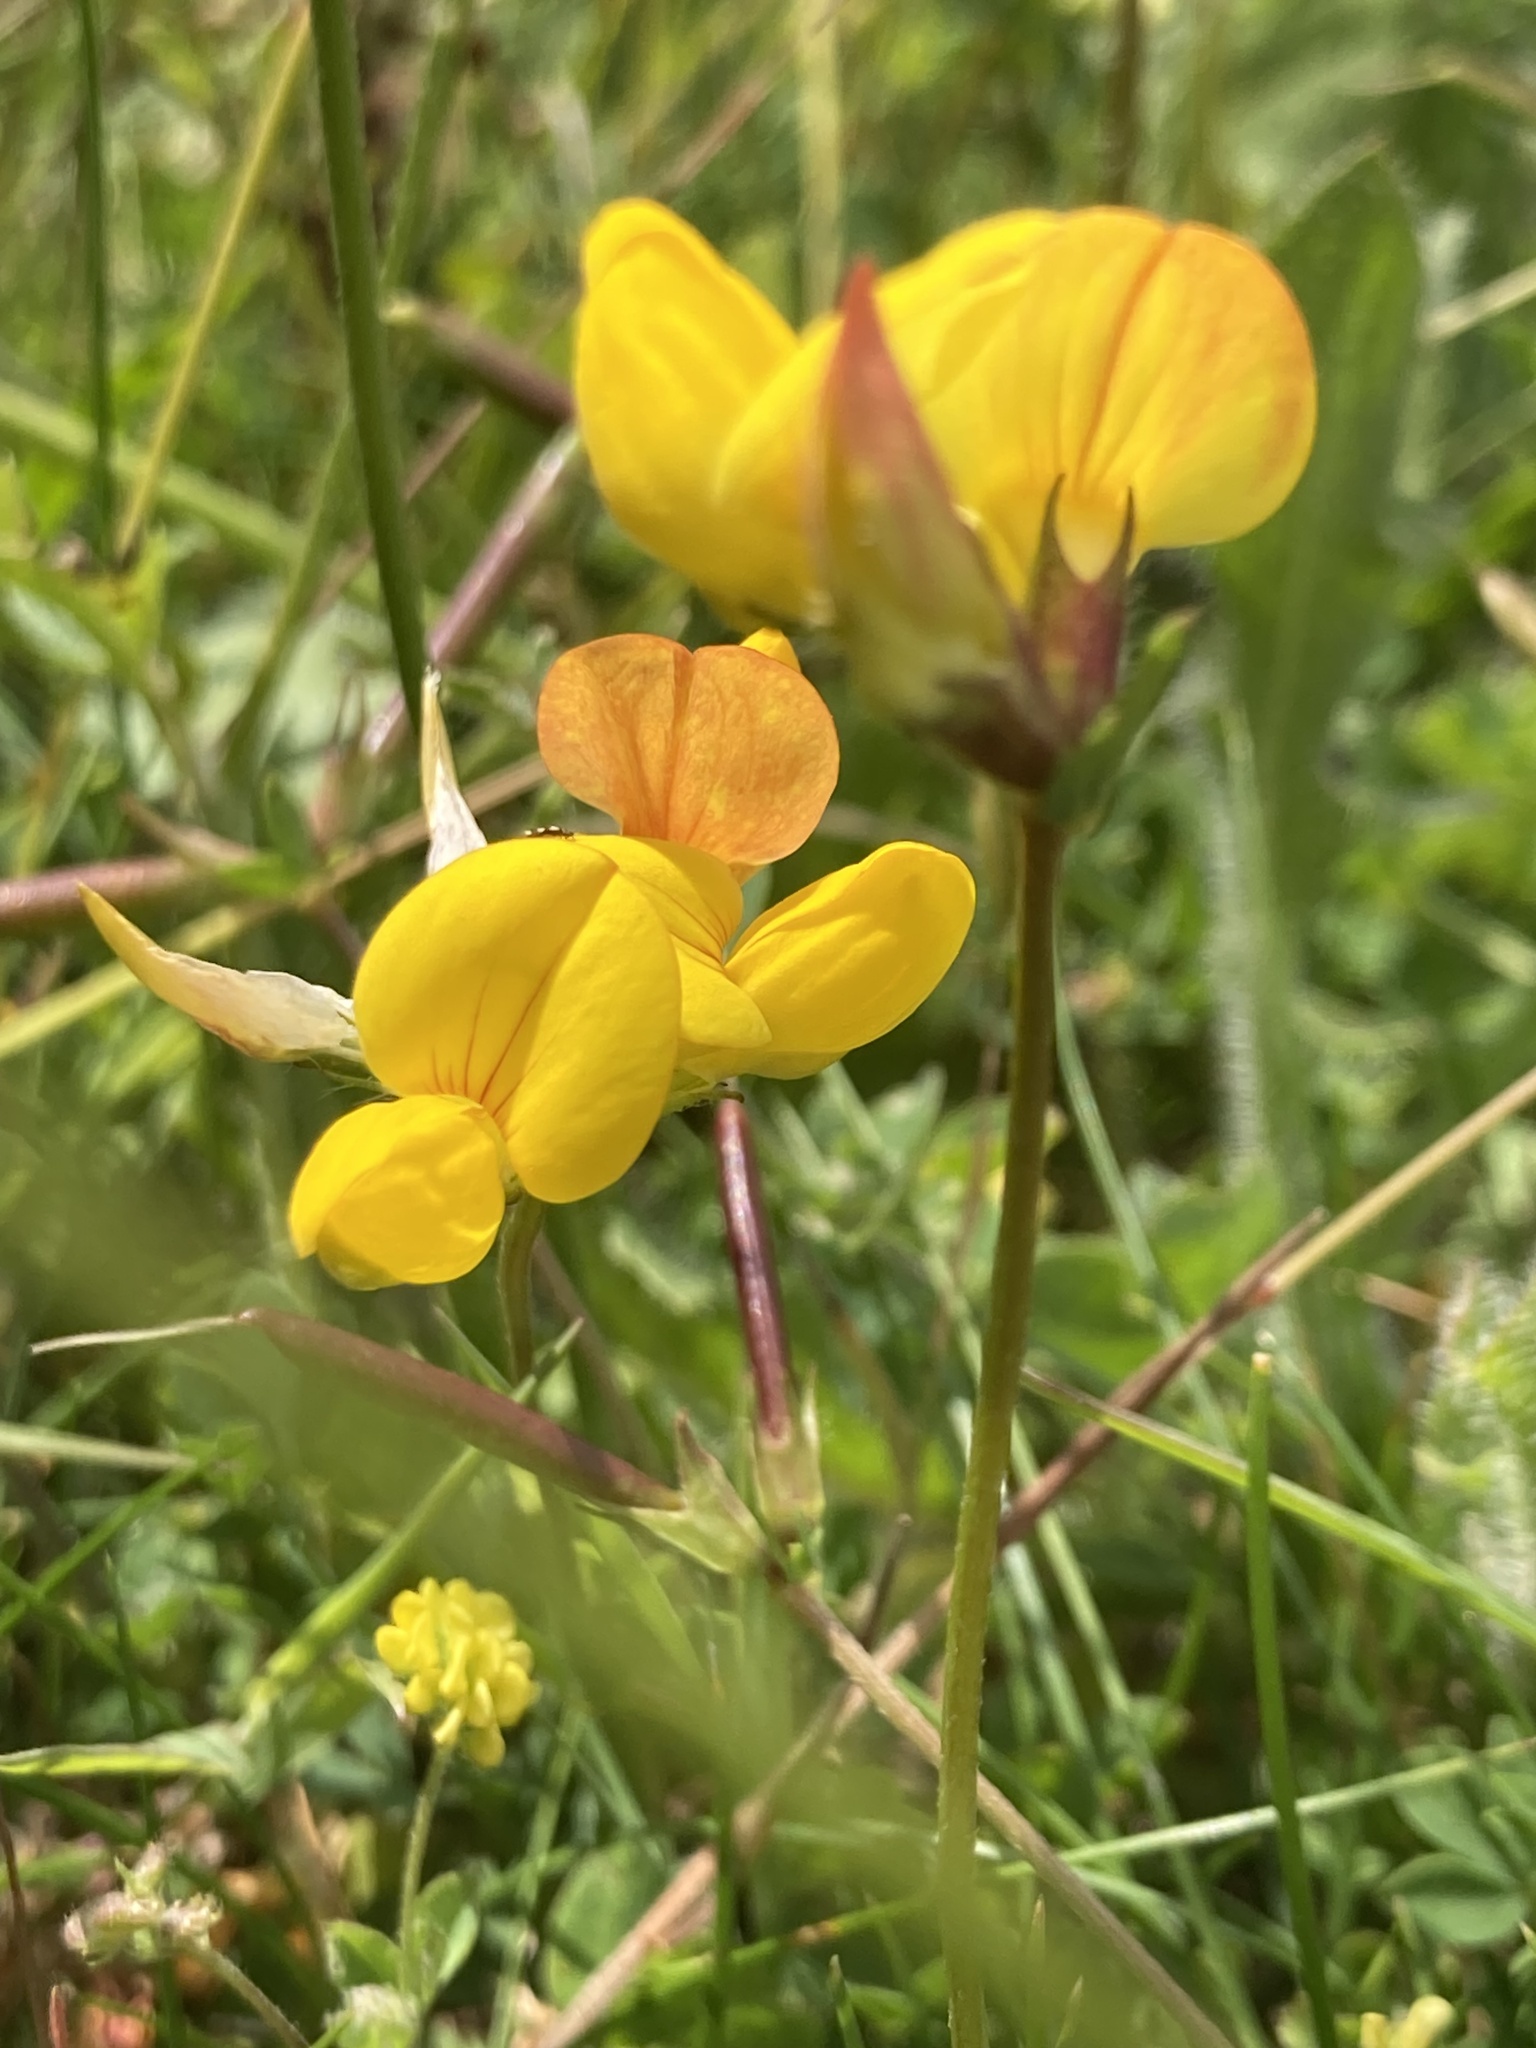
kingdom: Plantae
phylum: Tracheophyta
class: Magnoliopsida
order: Fabales
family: Fabaceae
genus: Lotus
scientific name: Lotus corniculatus
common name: Common bird's-foot-trefoil
